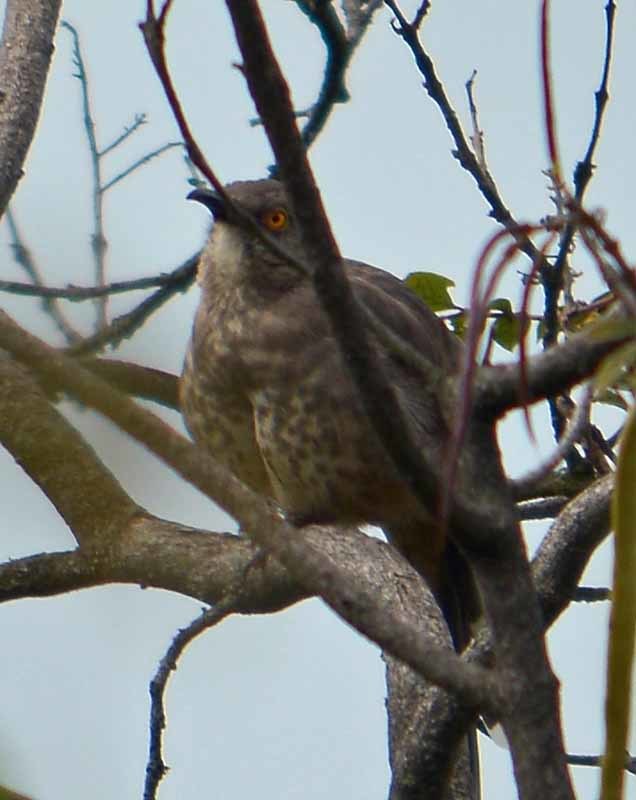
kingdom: Animalia
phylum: Chordata
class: Aves
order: Passeriformes
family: Mimidae
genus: Toxostoma
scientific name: Toxostoma curvirostre
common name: Curve-billed thrasher
